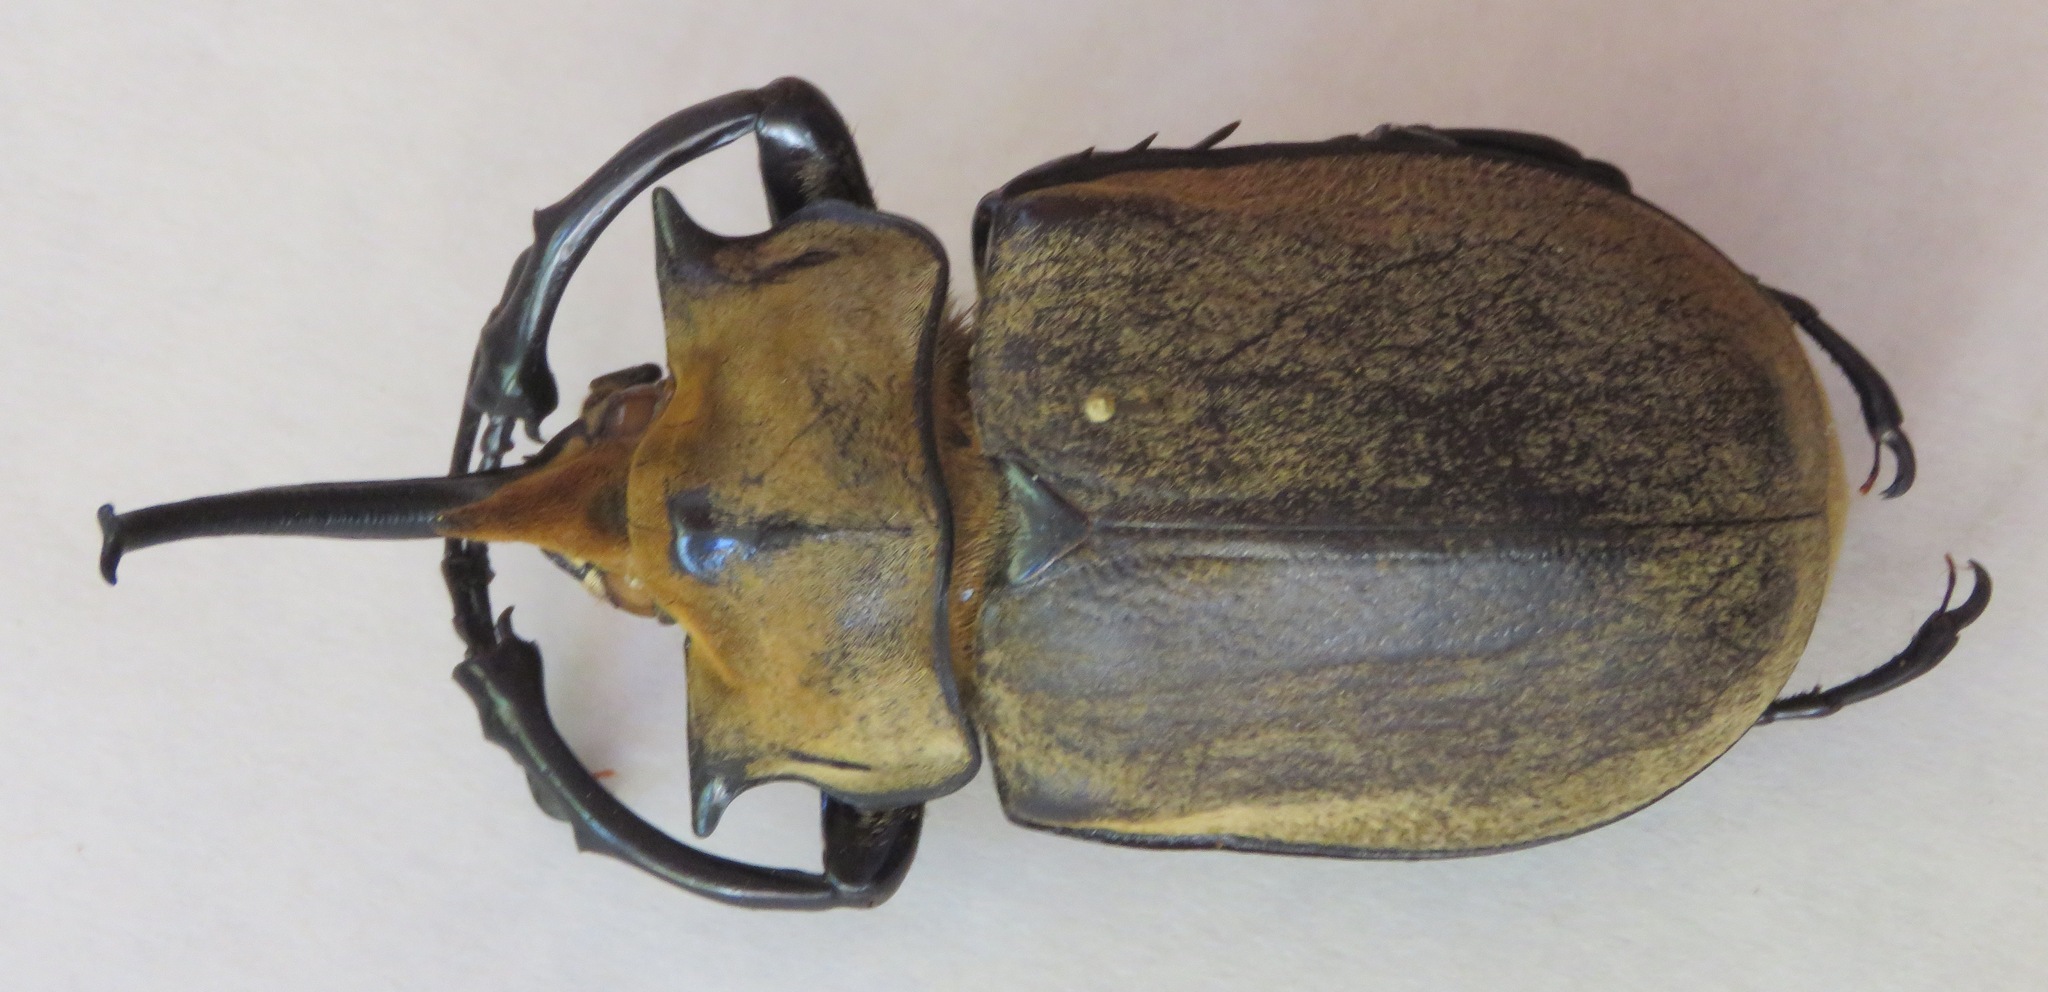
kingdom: Animalia
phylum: Arthropoda
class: Insecta
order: Coleoptera
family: Scarabaeidae
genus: Megasoma
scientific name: Megasoma occidentale
